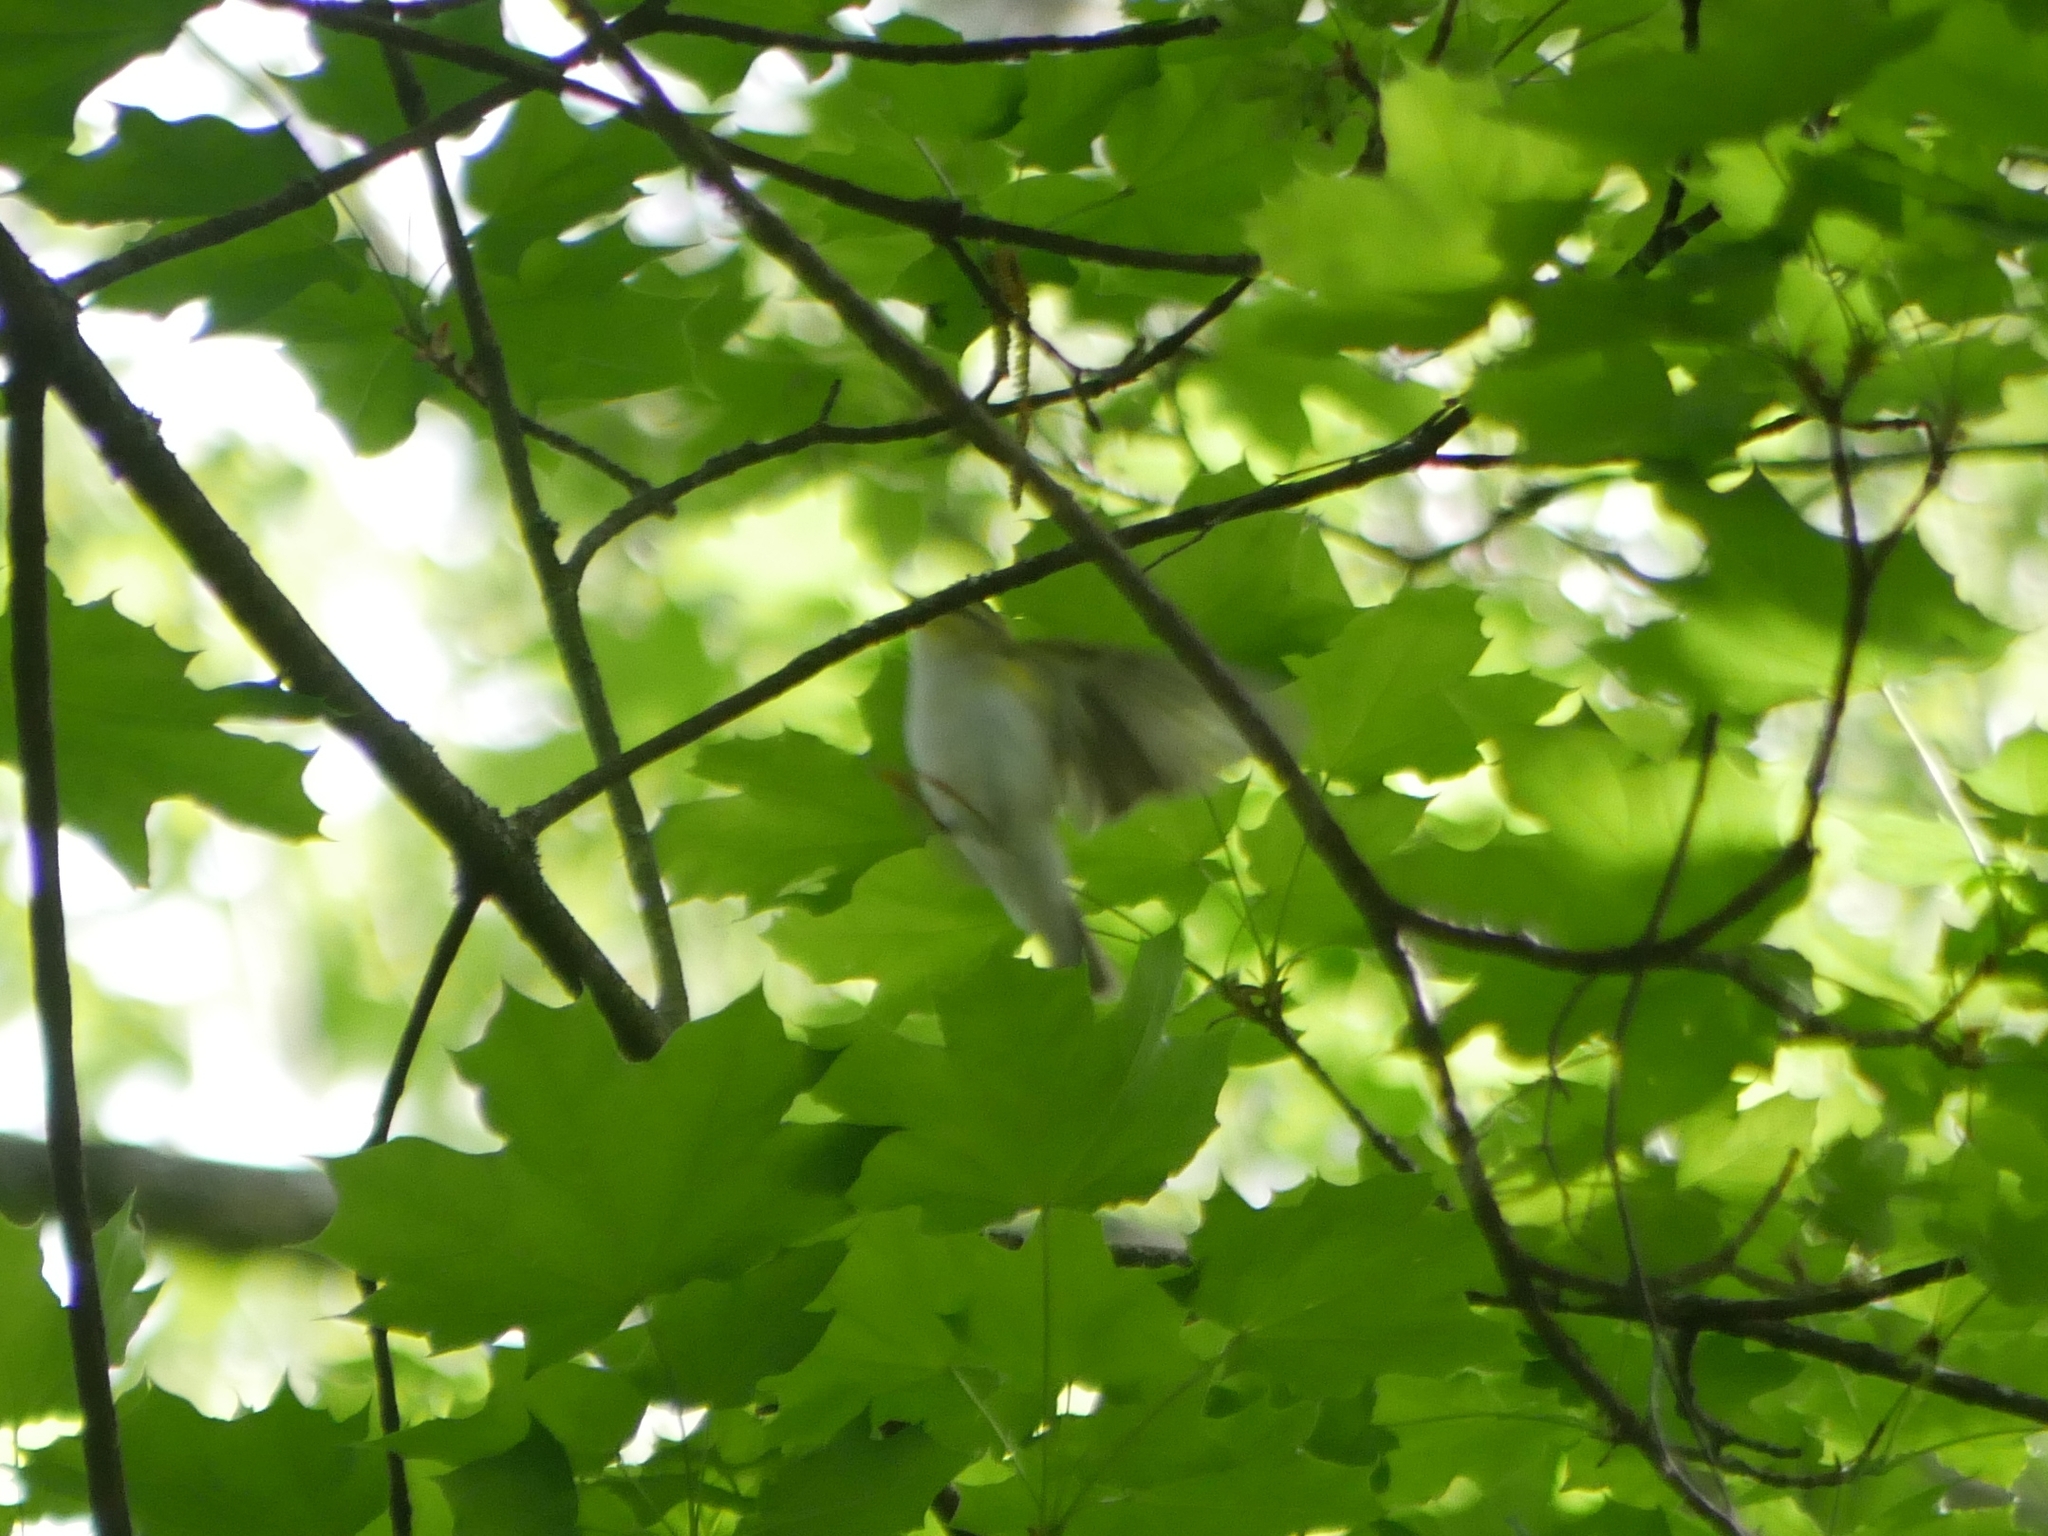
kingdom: Animalia
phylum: Chordata
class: Aves
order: Passeriformes
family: Phylloscopidae
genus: Phylloscopus
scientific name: Phylloscopus sibillatrix
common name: Wood warbler
